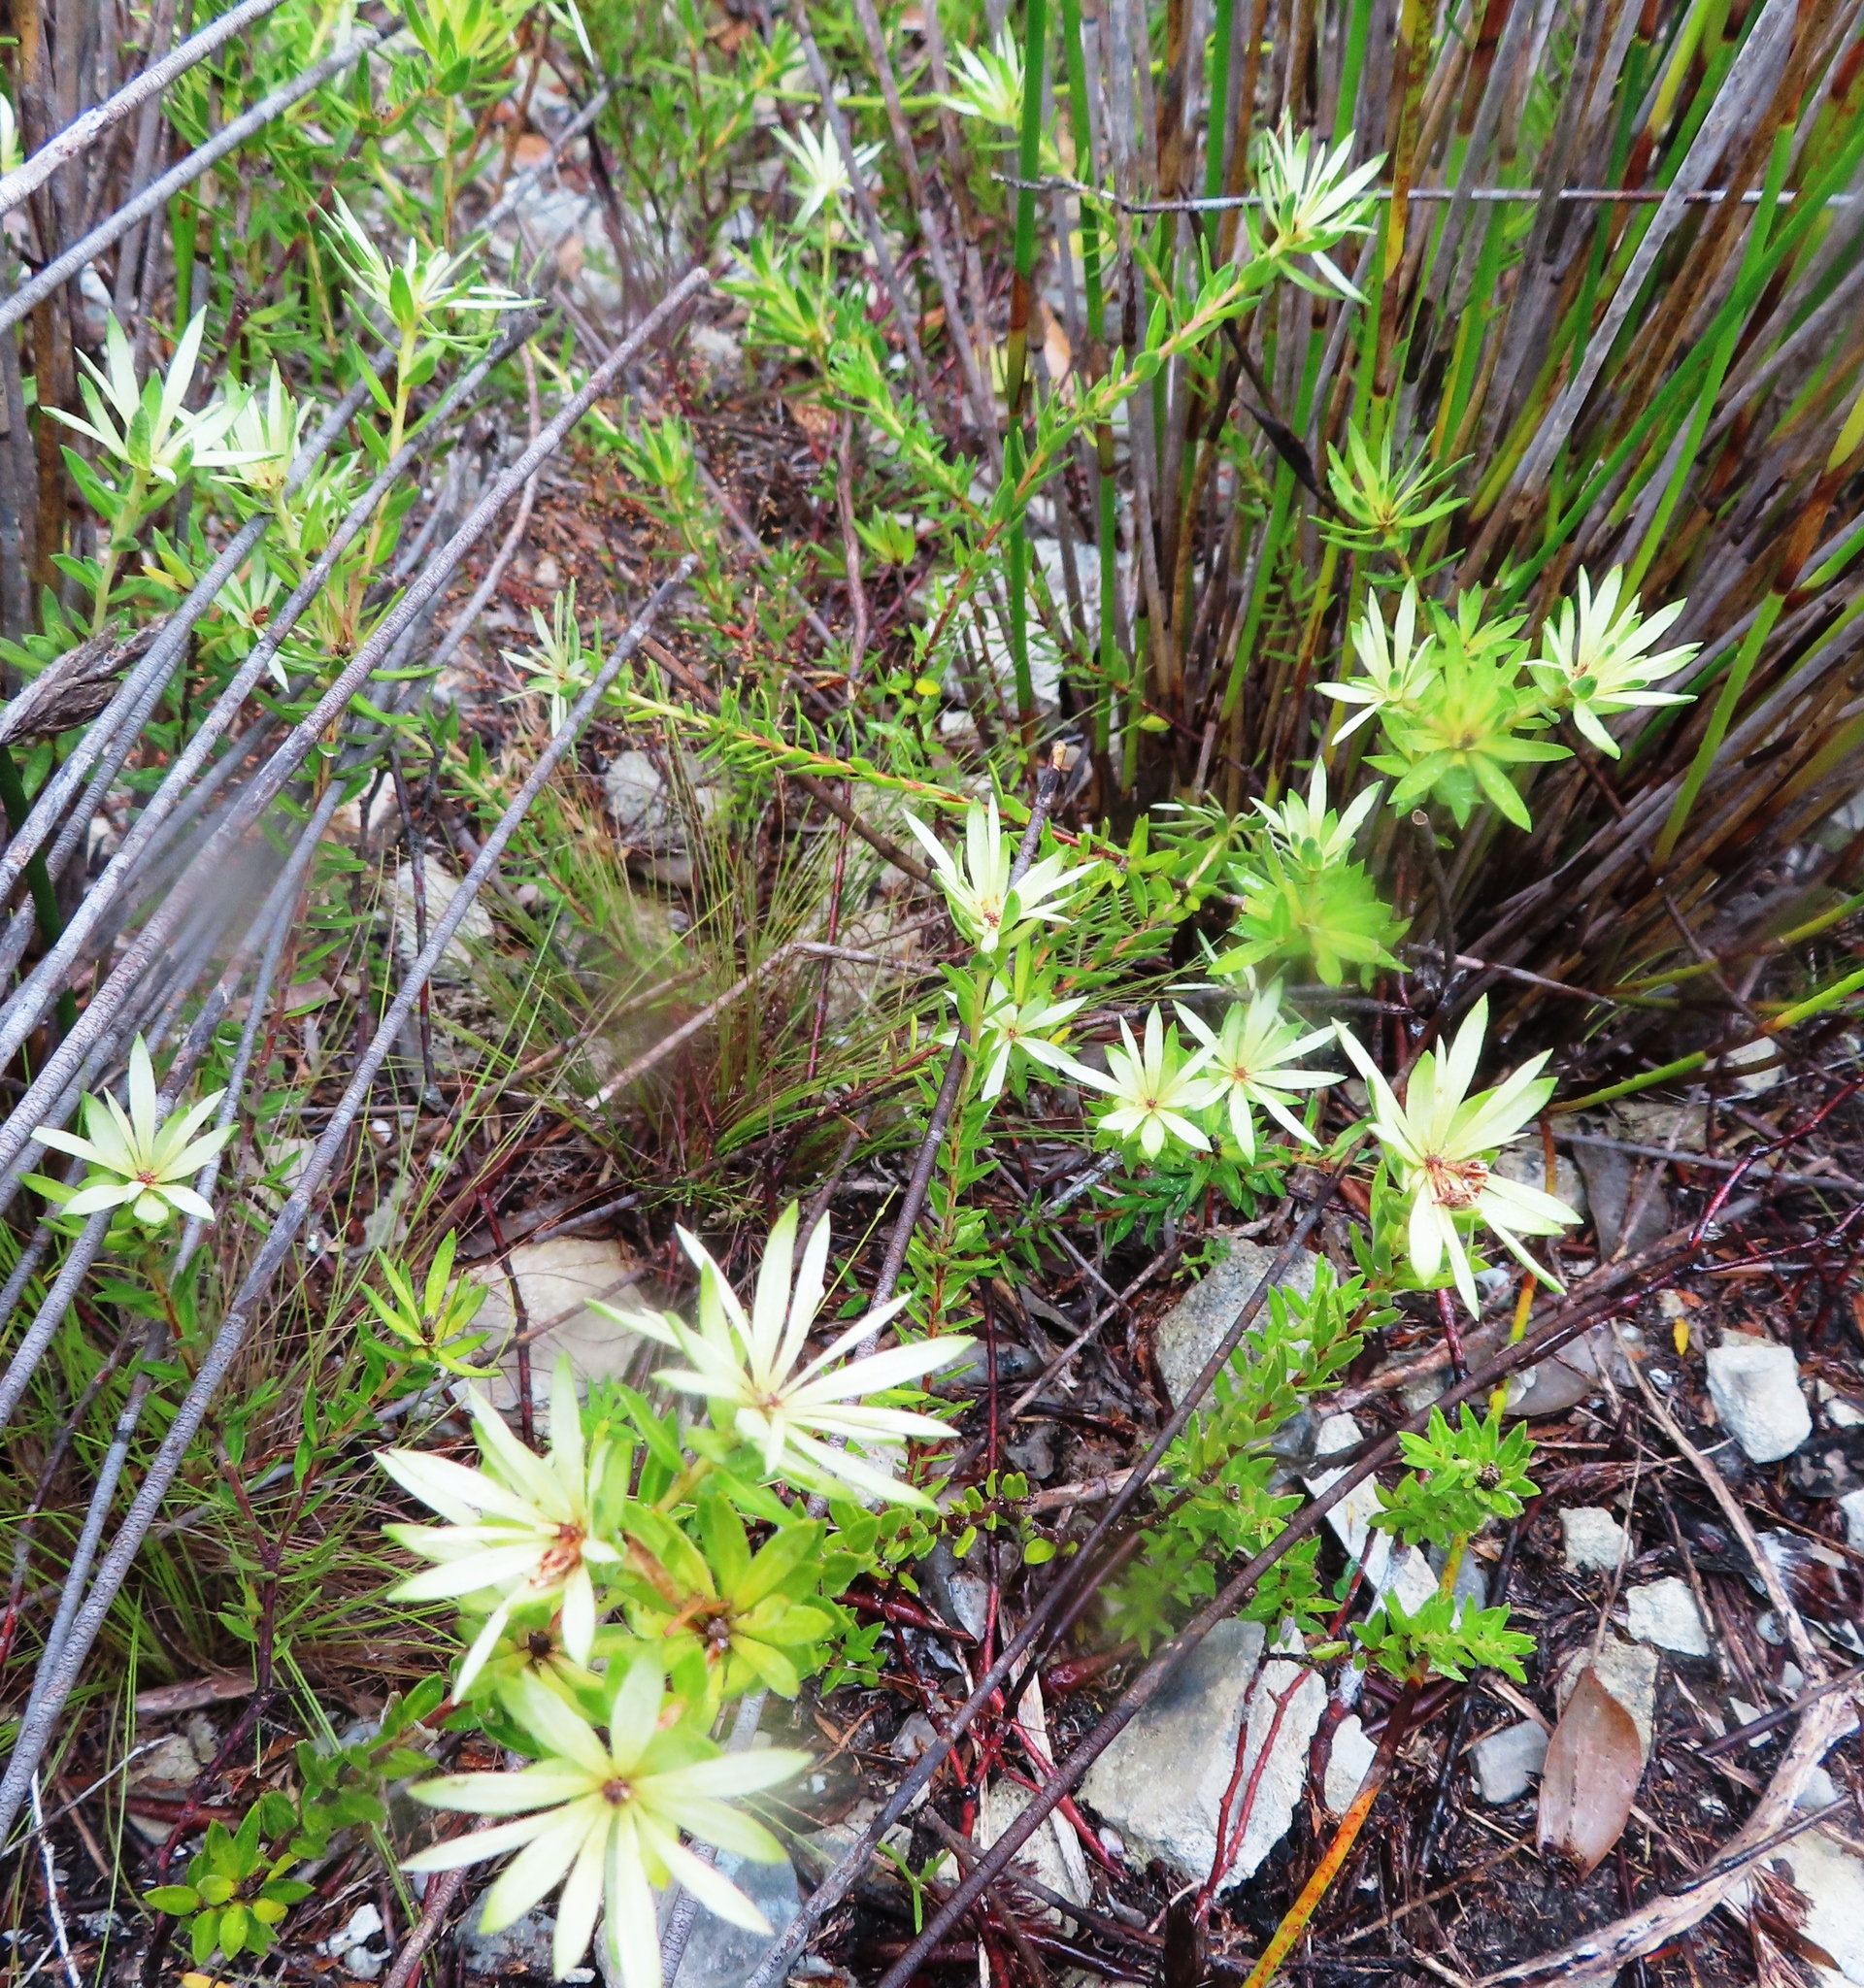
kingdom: Plantae
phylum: Tracheophyta
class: Magnoliopsida
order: Sapindales
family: Rutaceae
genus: Euchaetis
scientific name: Euchaetis longibracteata
